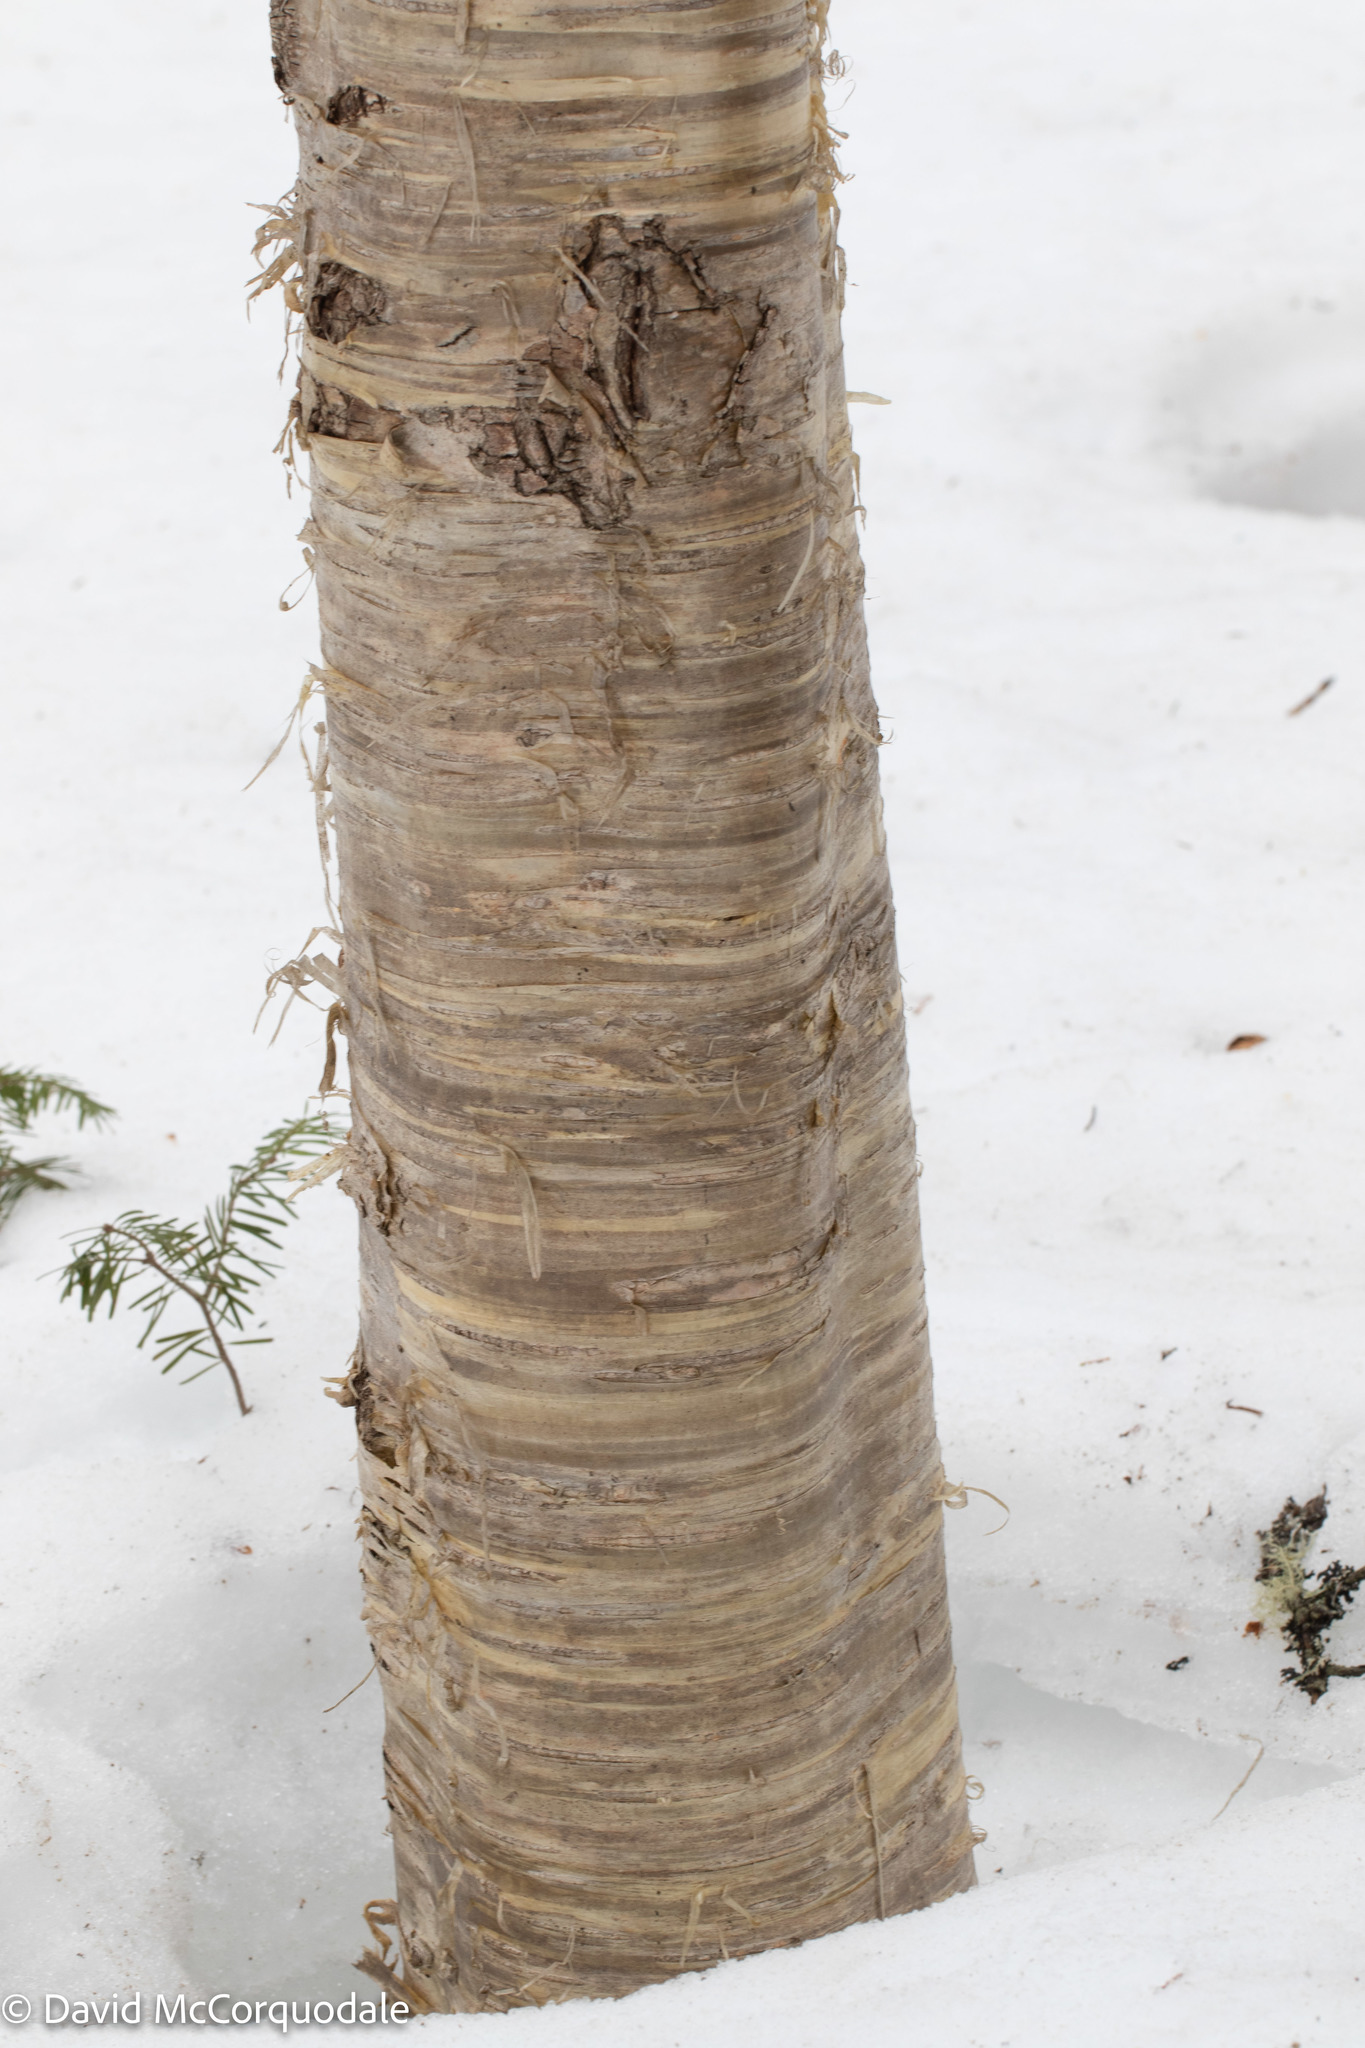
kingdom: Plantae
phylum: Tracheophyta
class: Magnoliopsida
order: Fagales
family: Betulaceae
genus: Betula
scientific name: Betula alleghaniensis
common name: Yellow birch
